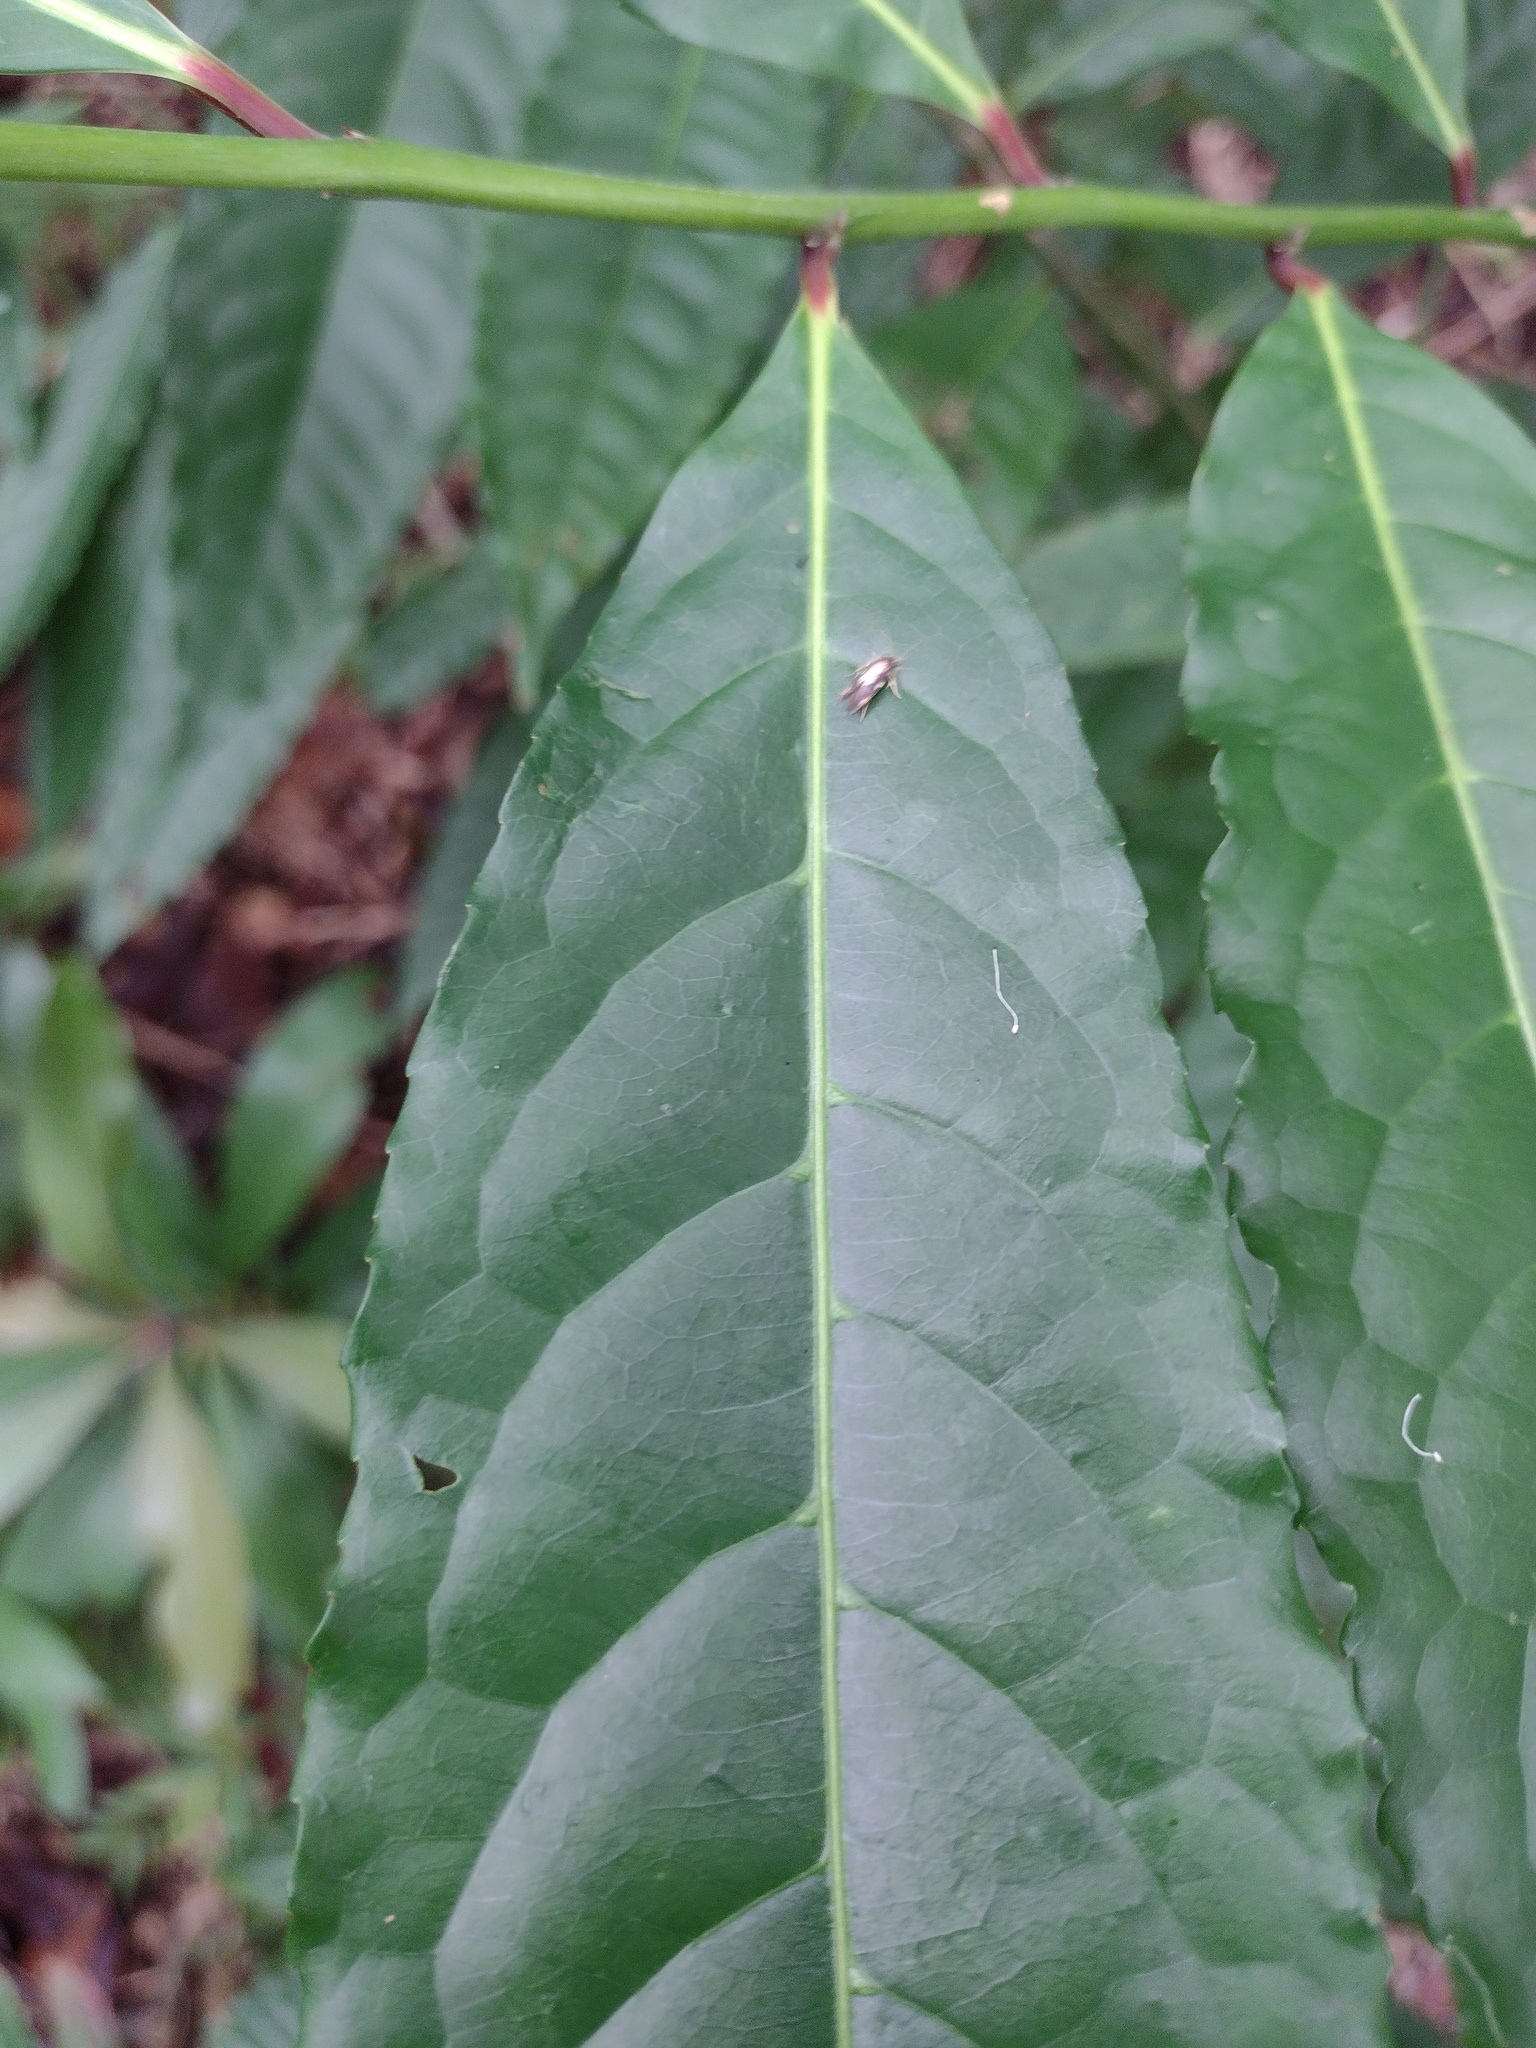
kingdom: Animalia
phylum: Arthropoda
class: Insecta
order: Lepidoptera
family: Tineidae
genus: Opogona
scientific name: Opogona purpuriella
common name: Tineid moth
